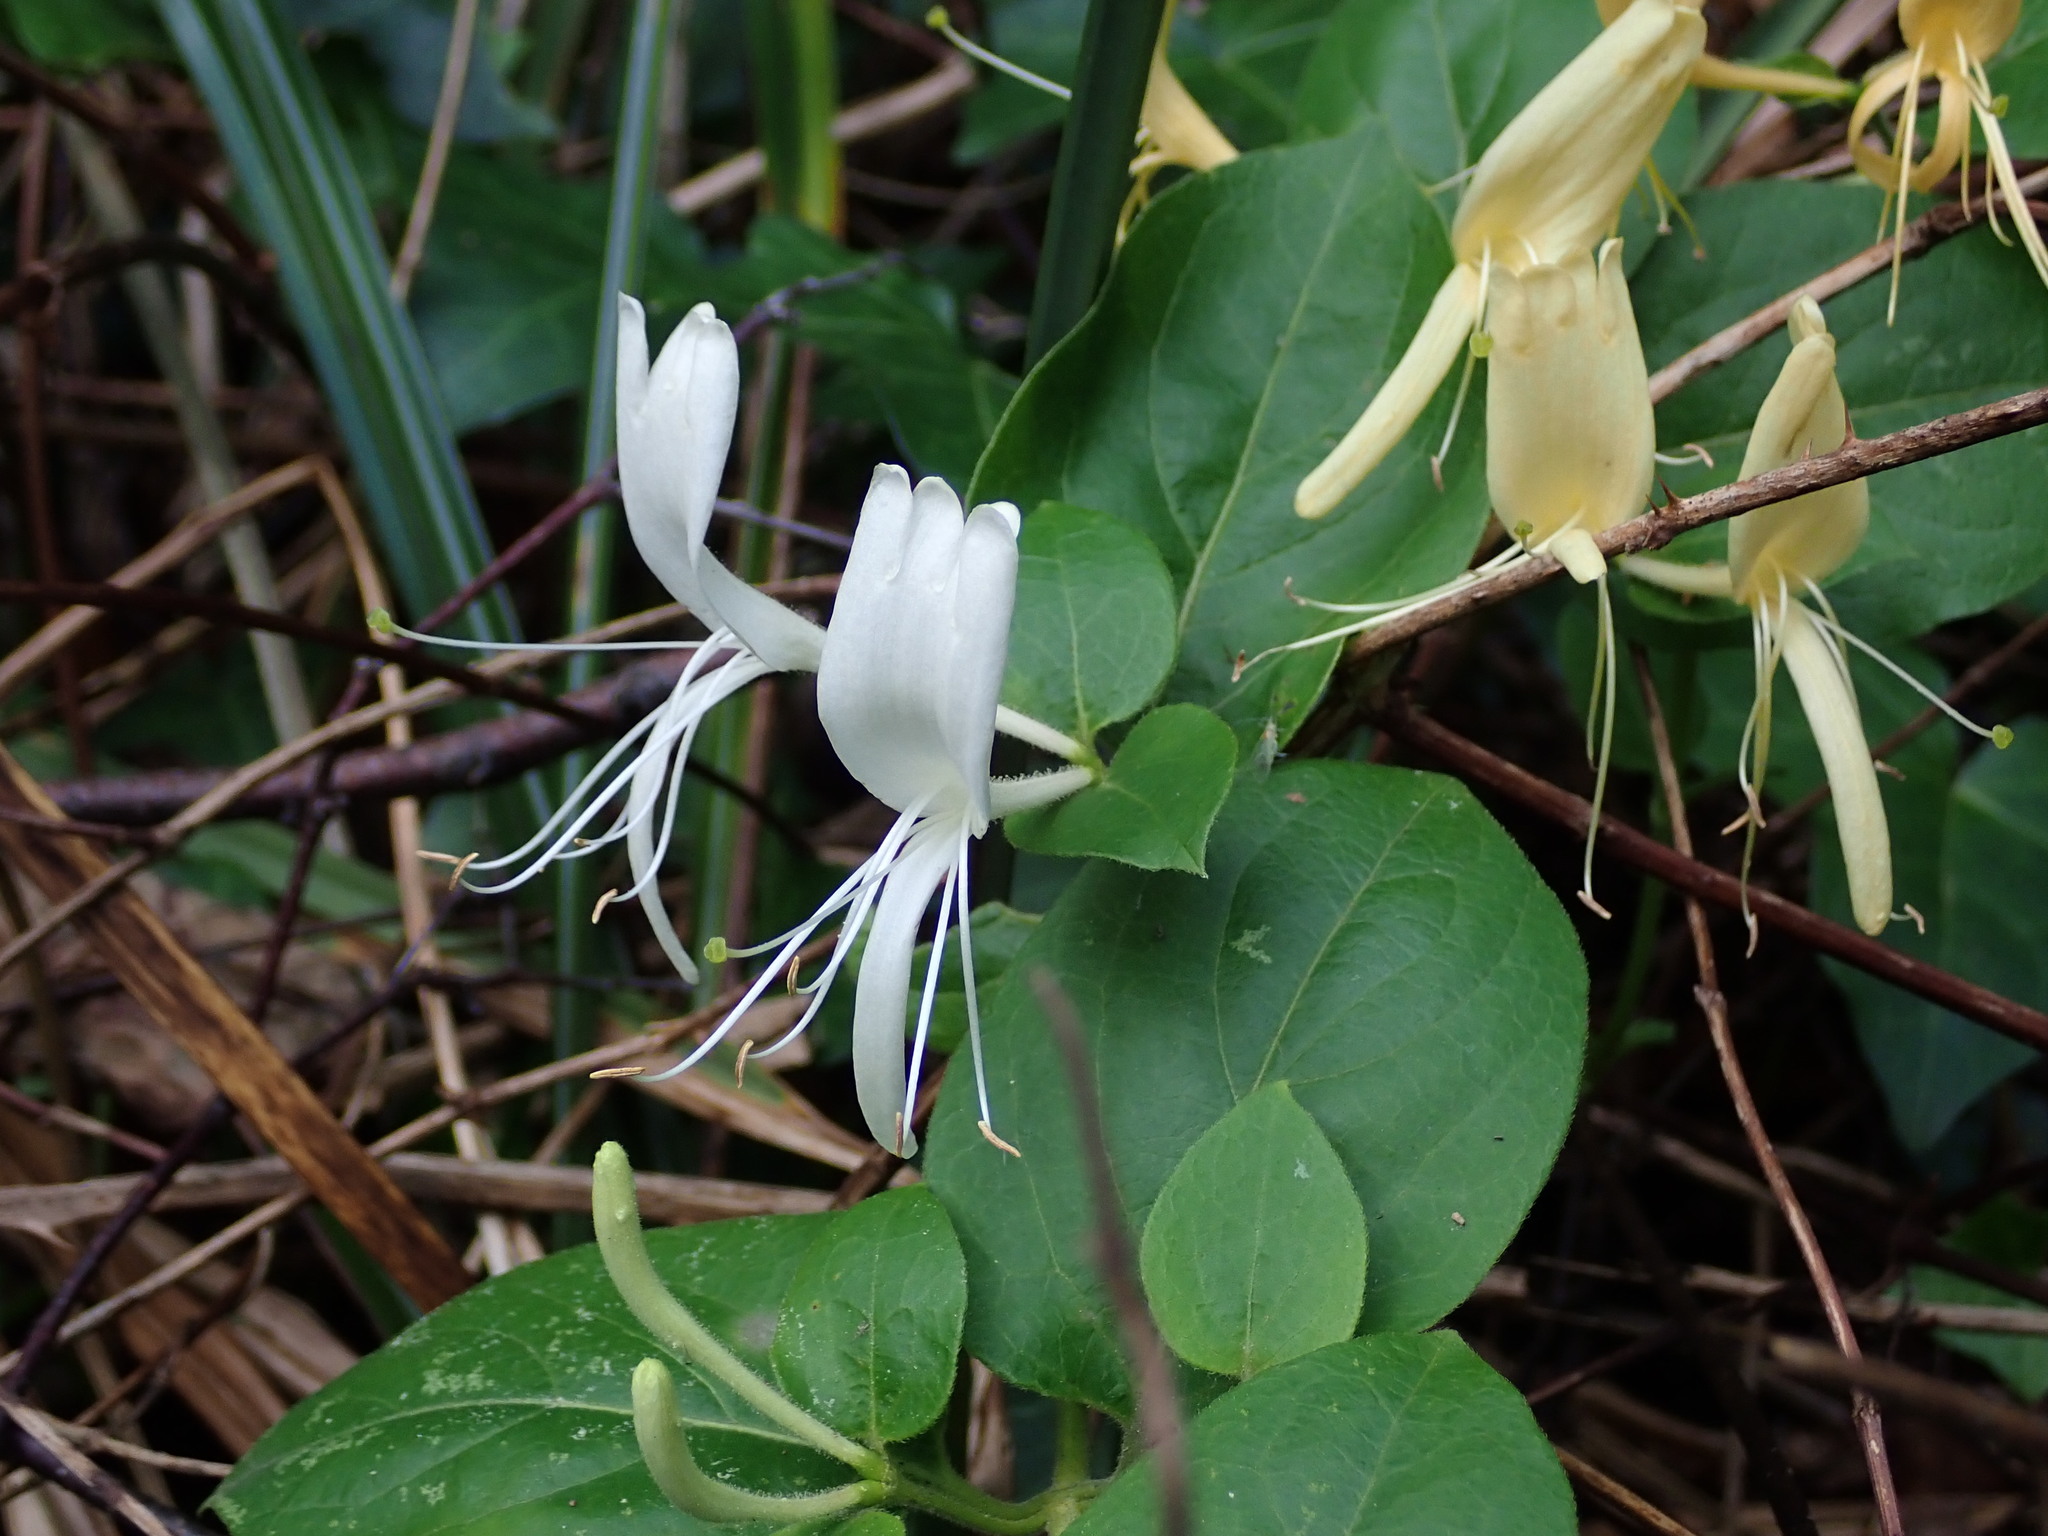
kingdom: Plantae
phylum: Tracheophyta
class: Magnoliopsida
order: Dipsacales
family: Caprifoliaceae
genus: Lonicera
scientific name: Lonicera japonica
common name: Japanese honeysuckle
